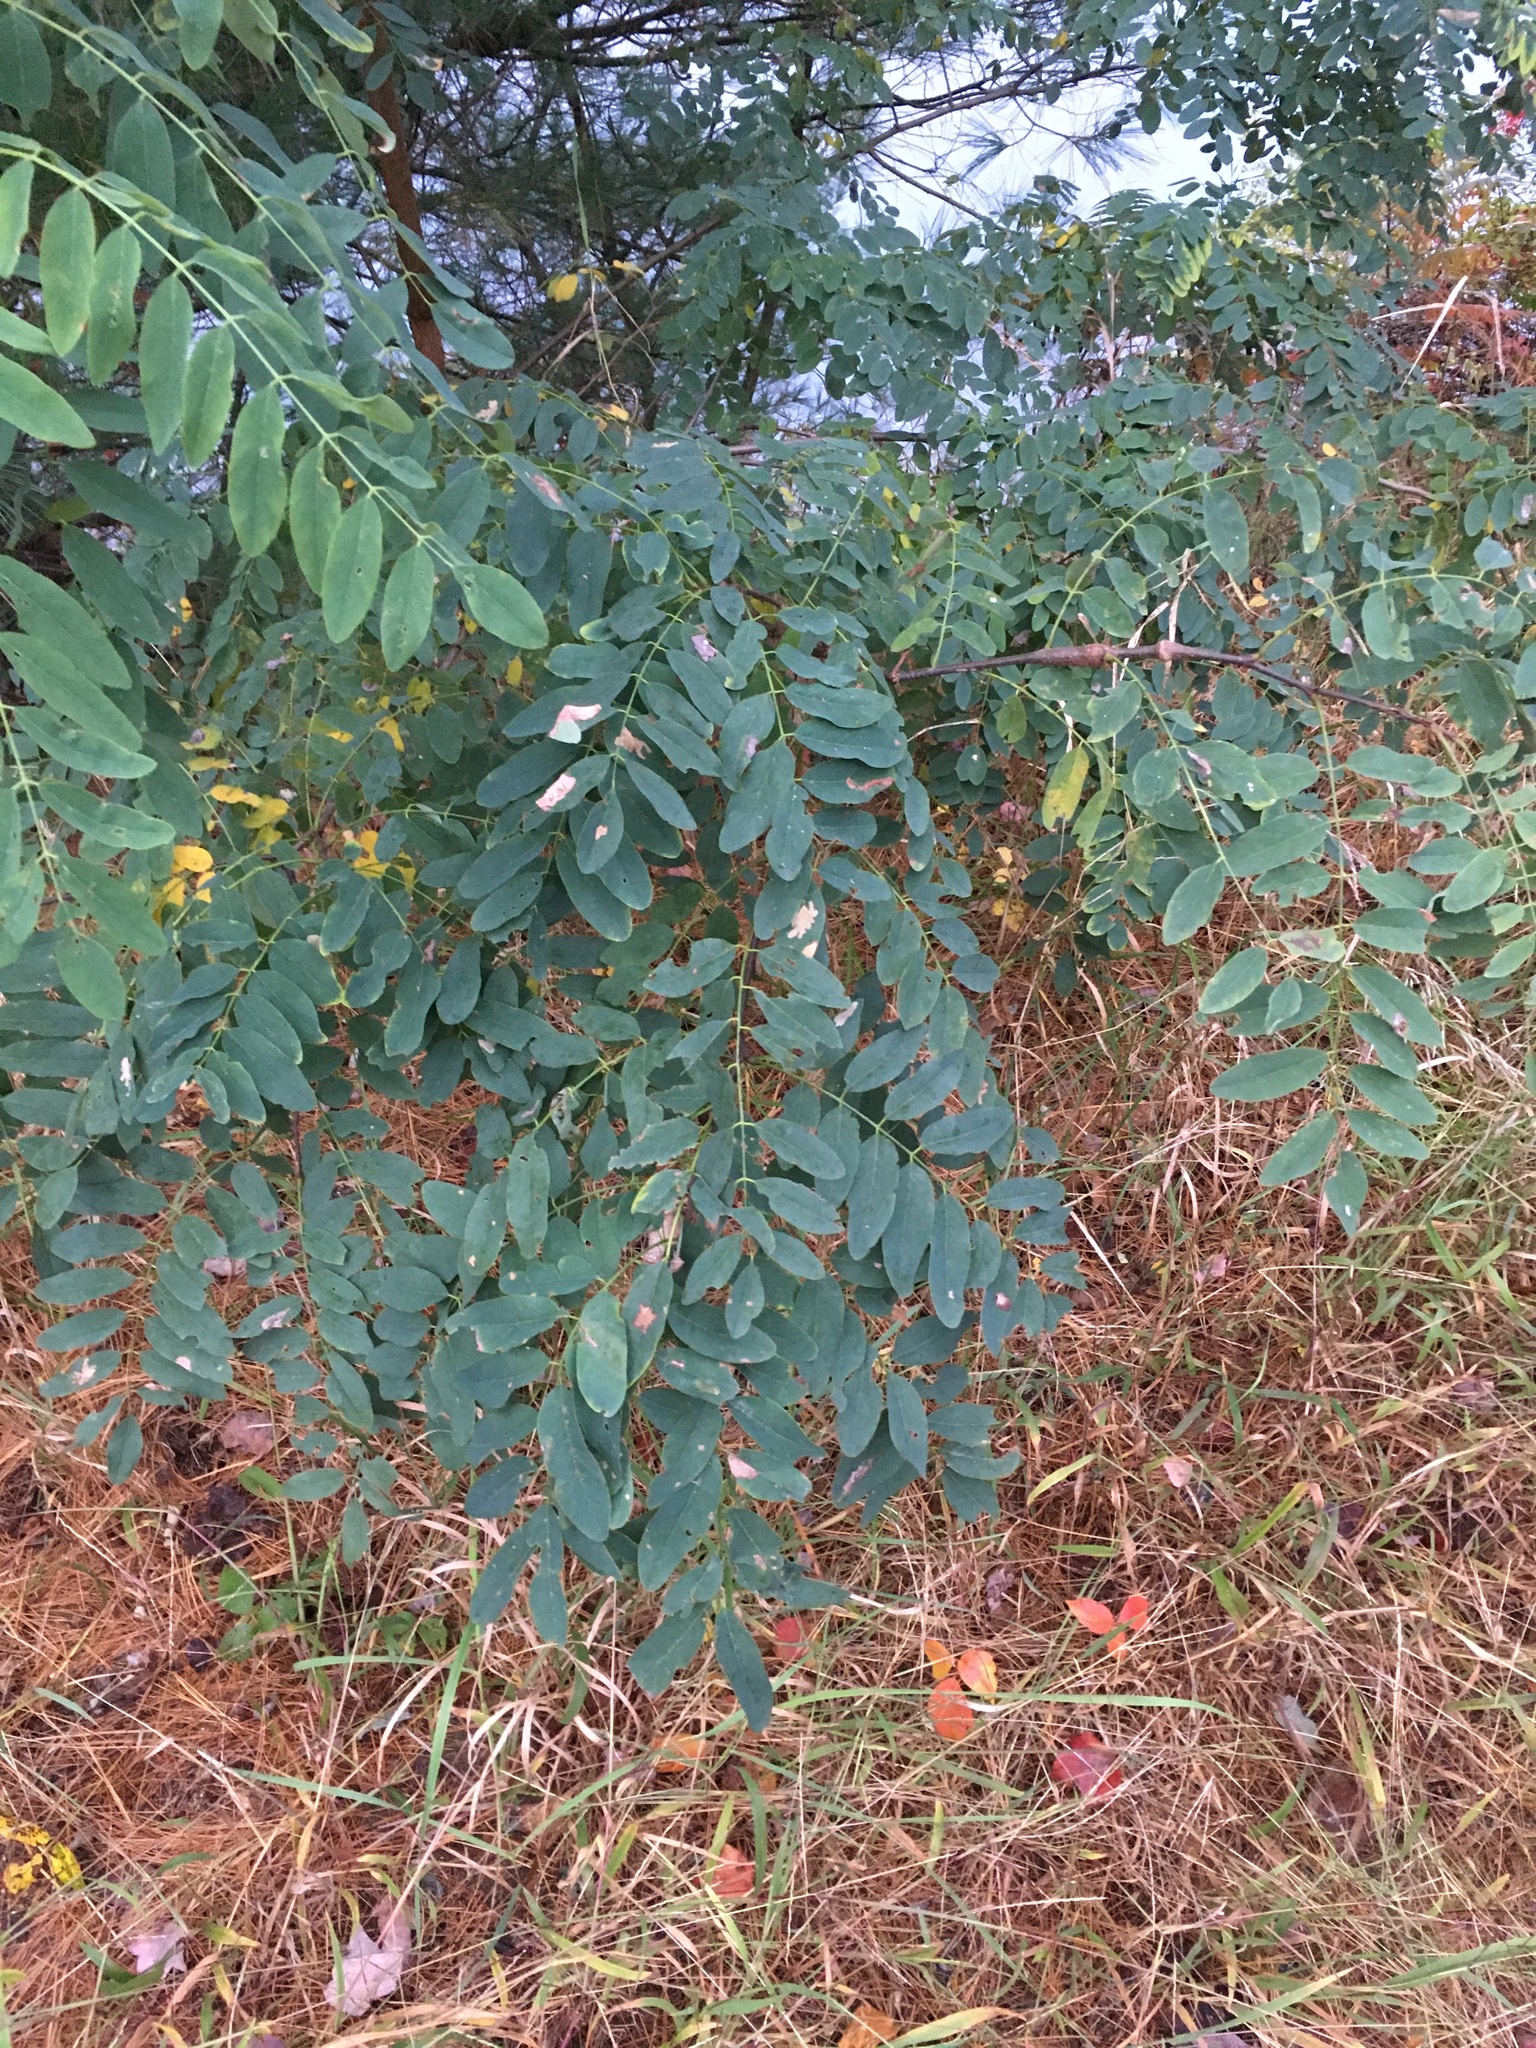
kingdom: Plantae
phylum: Tracheophyta
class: Magnoliopsida
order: Fabales
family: Fabaceae
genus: Robinia
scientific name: Robinia pseudoacacia
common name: Black locust
